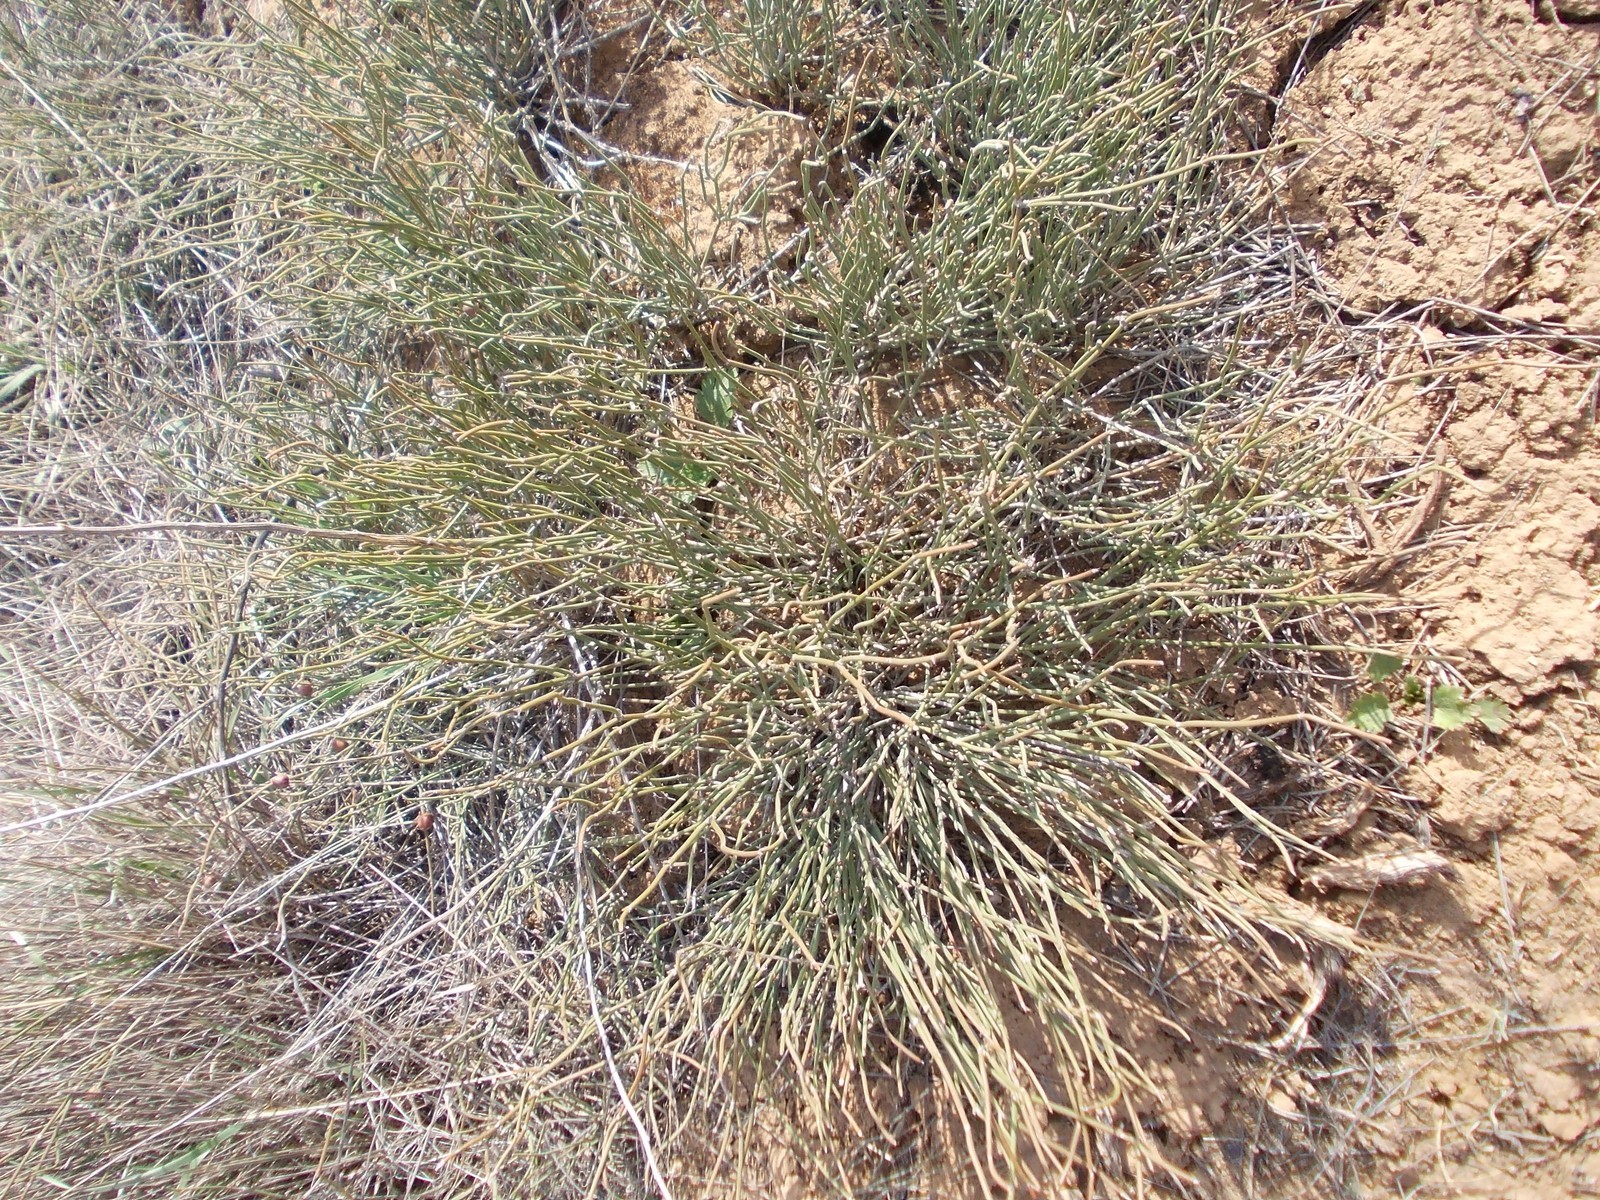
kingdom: Plantae
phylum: Tracheophyta
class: Gnetopsida
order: Ephedrales
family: Ephedraceae
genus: Ephedra
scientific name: Ephedra distachya
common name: Sea grape
